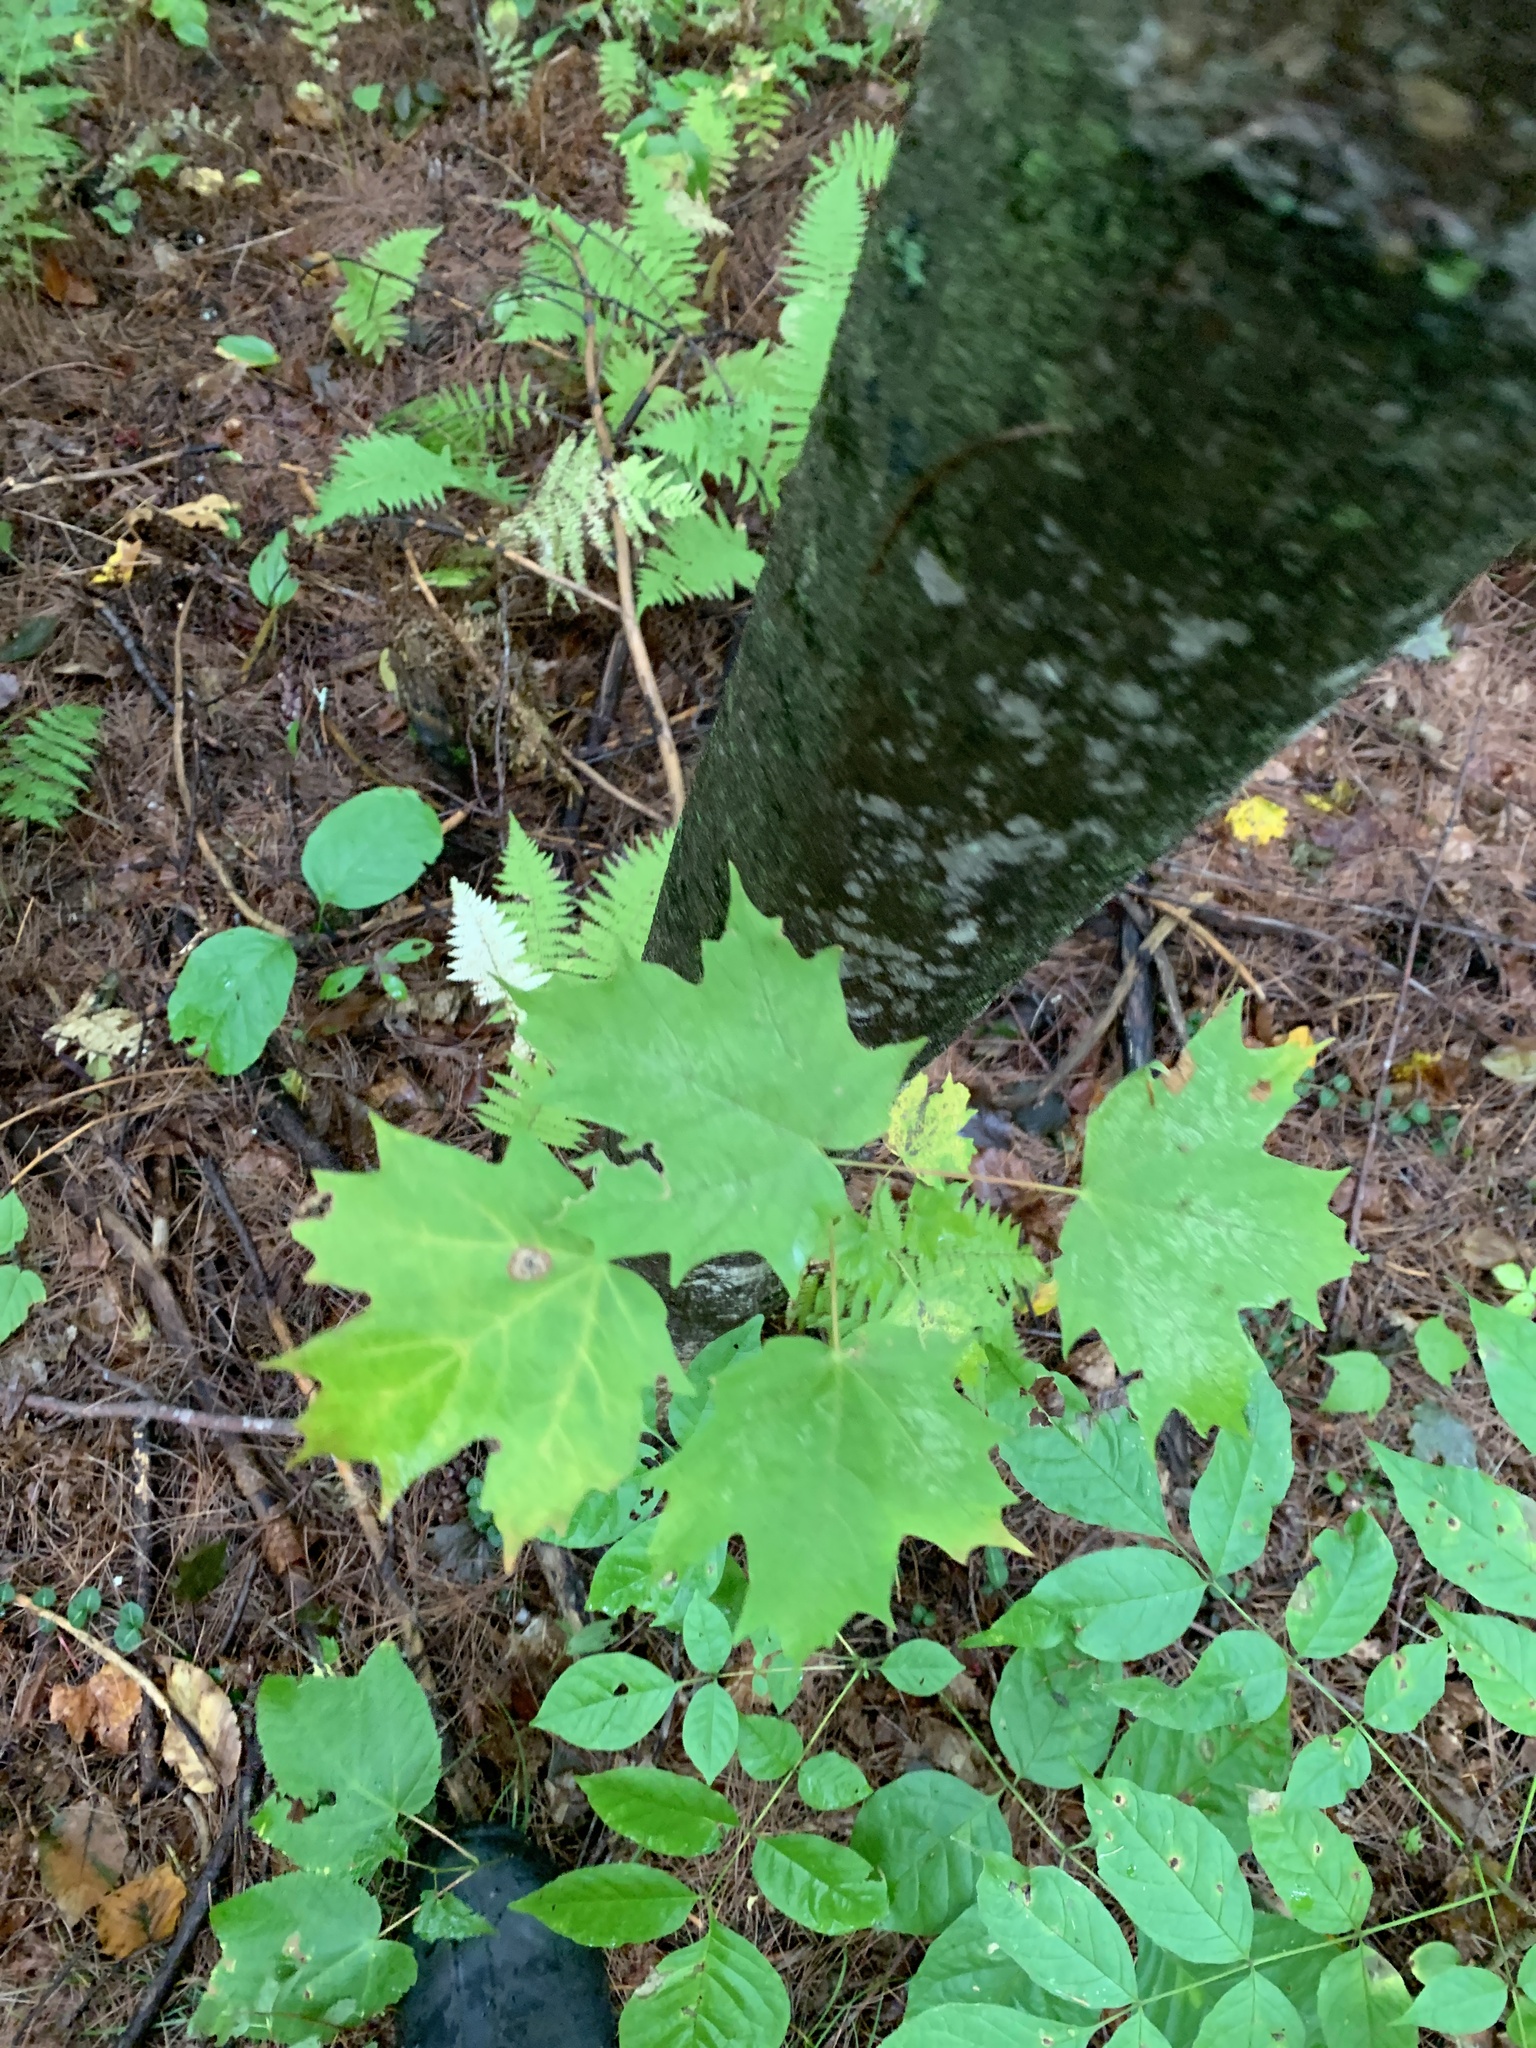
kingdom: Plantae
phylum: Tracheophyta
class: Magnoliopsida
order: Sapindales
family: Sapindaceae
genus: Acer
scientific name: Acer saccharum
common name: Sugar maple
